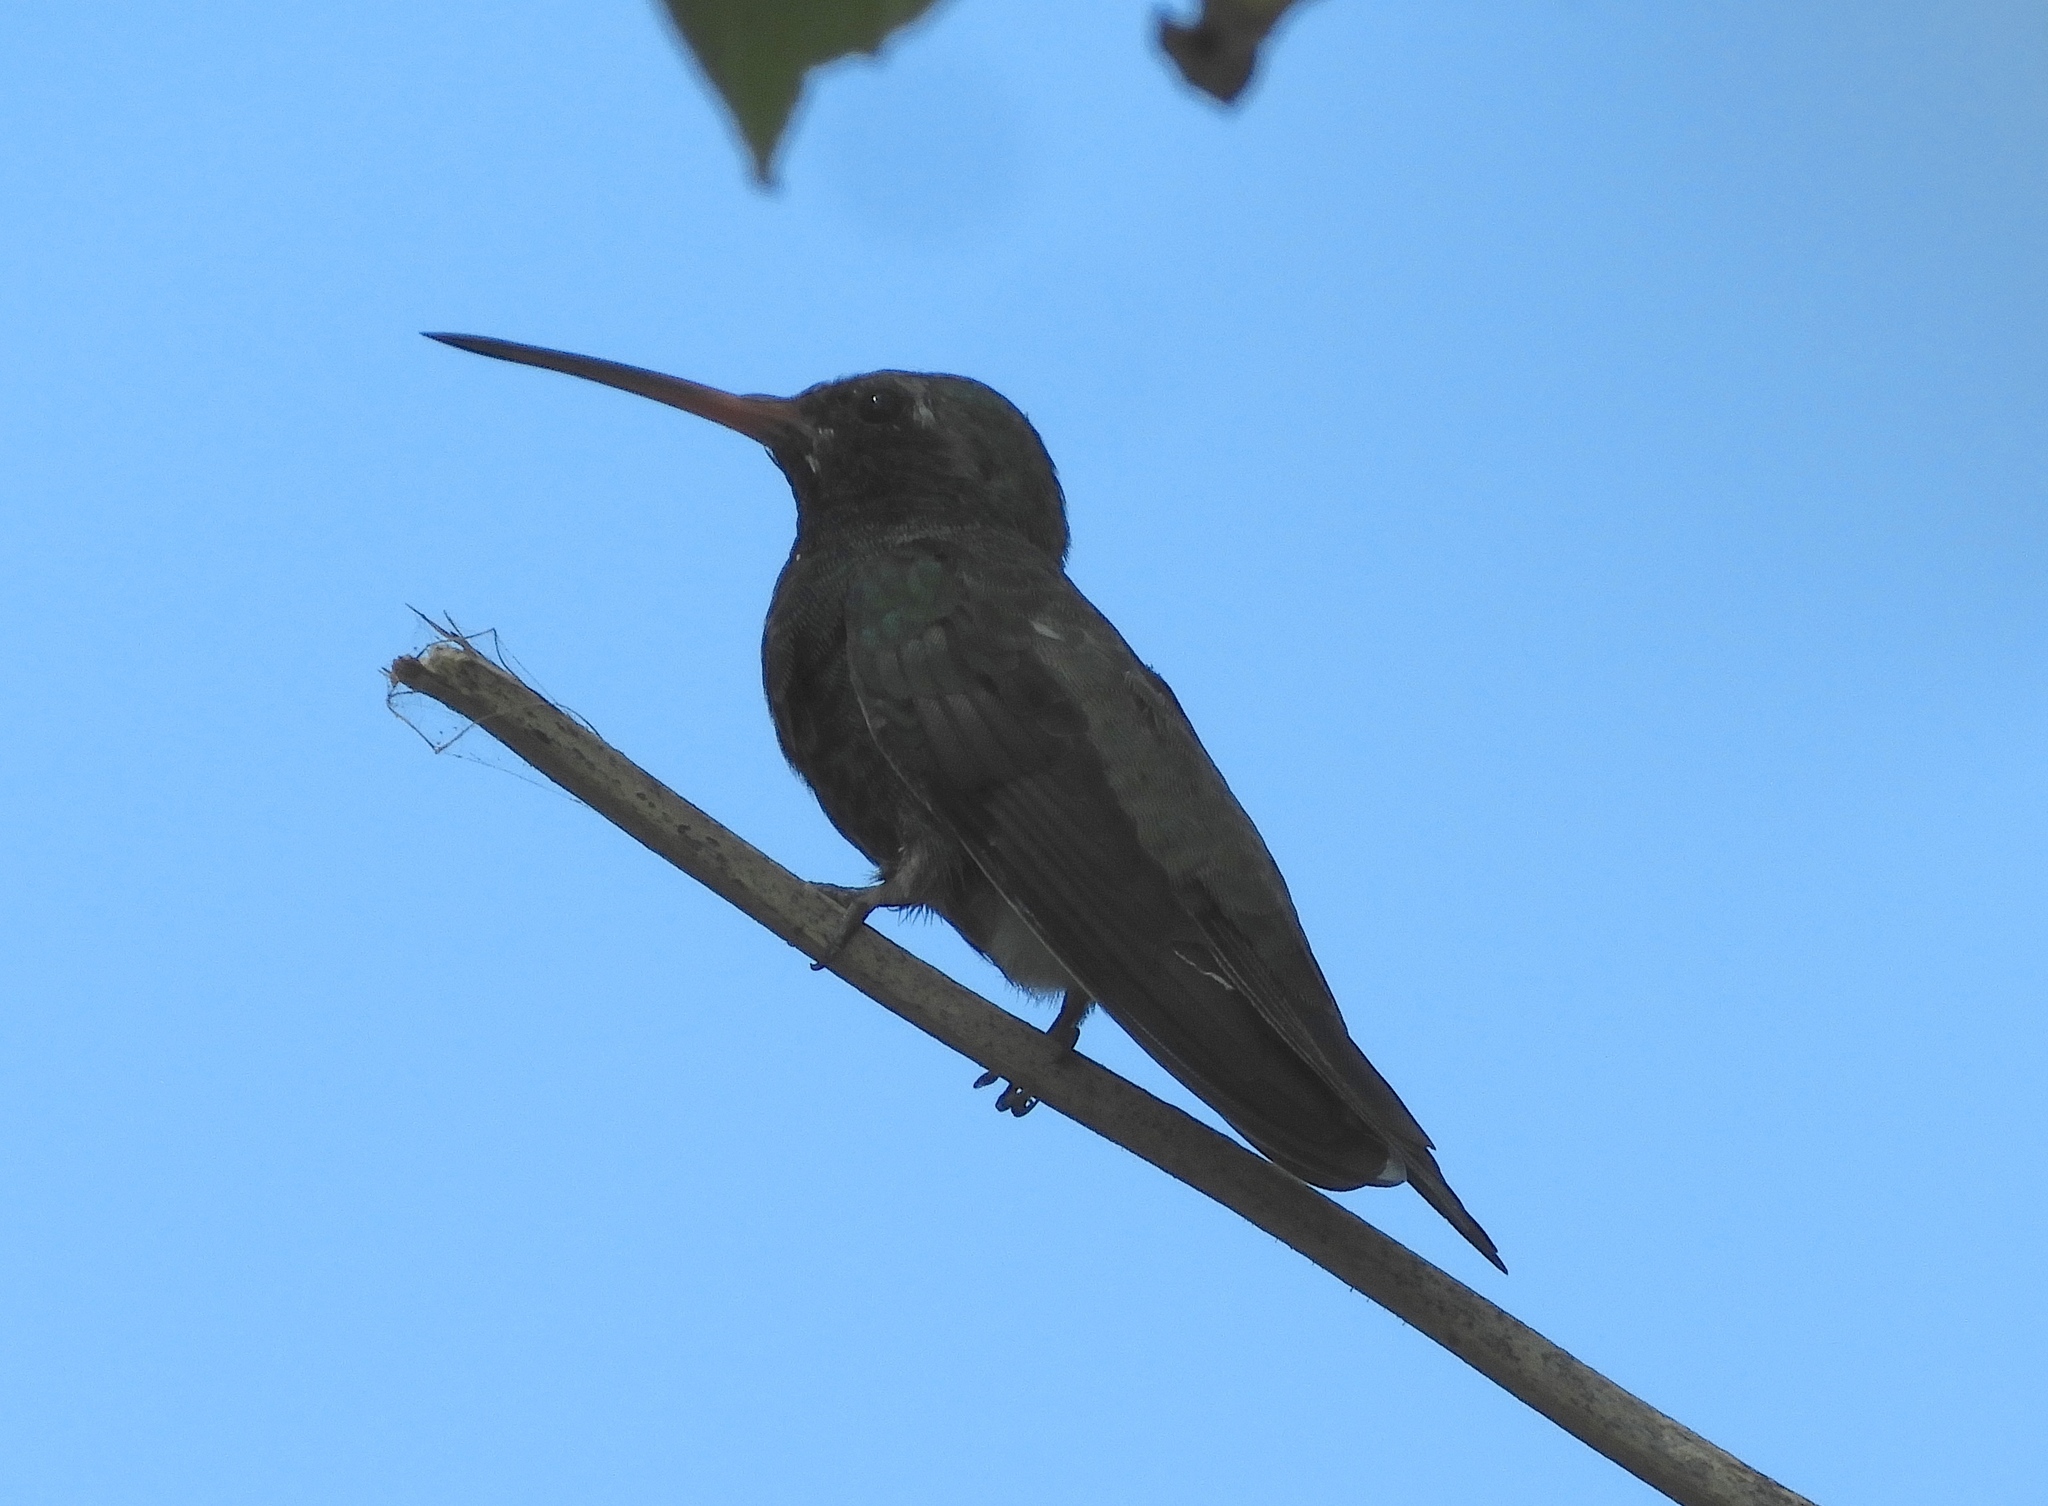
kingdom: Animalia
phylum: Chordata
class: Aves
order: Apodiformes
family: Trochilidae
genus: Cynanthus
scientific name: Cynanthus latirostris
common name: Broad-billed hummingbird
